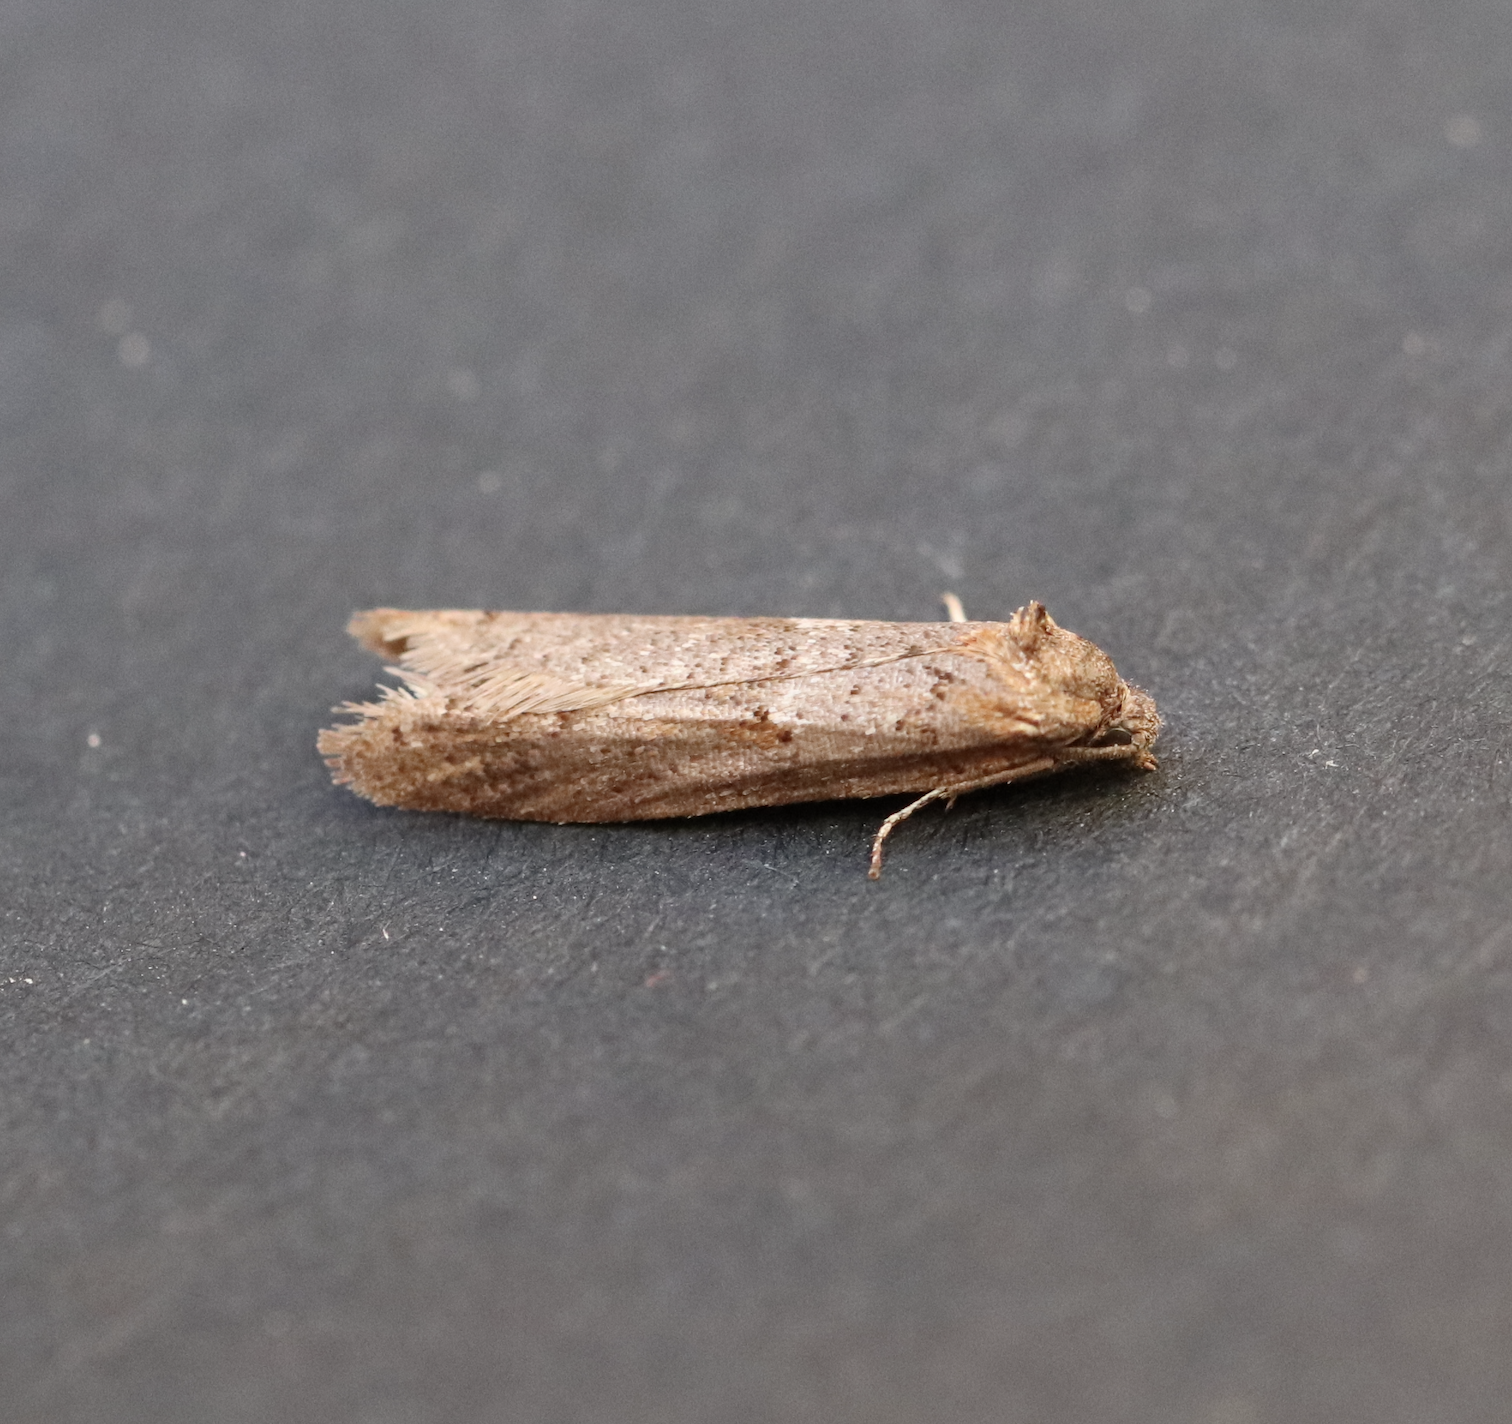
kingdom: Animalia
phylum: Arthropoda
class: Insecta
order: Lepidoptera
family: Tortricidae
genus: Tortricodes
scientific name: Tortricodes alternella
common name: Winter shade
